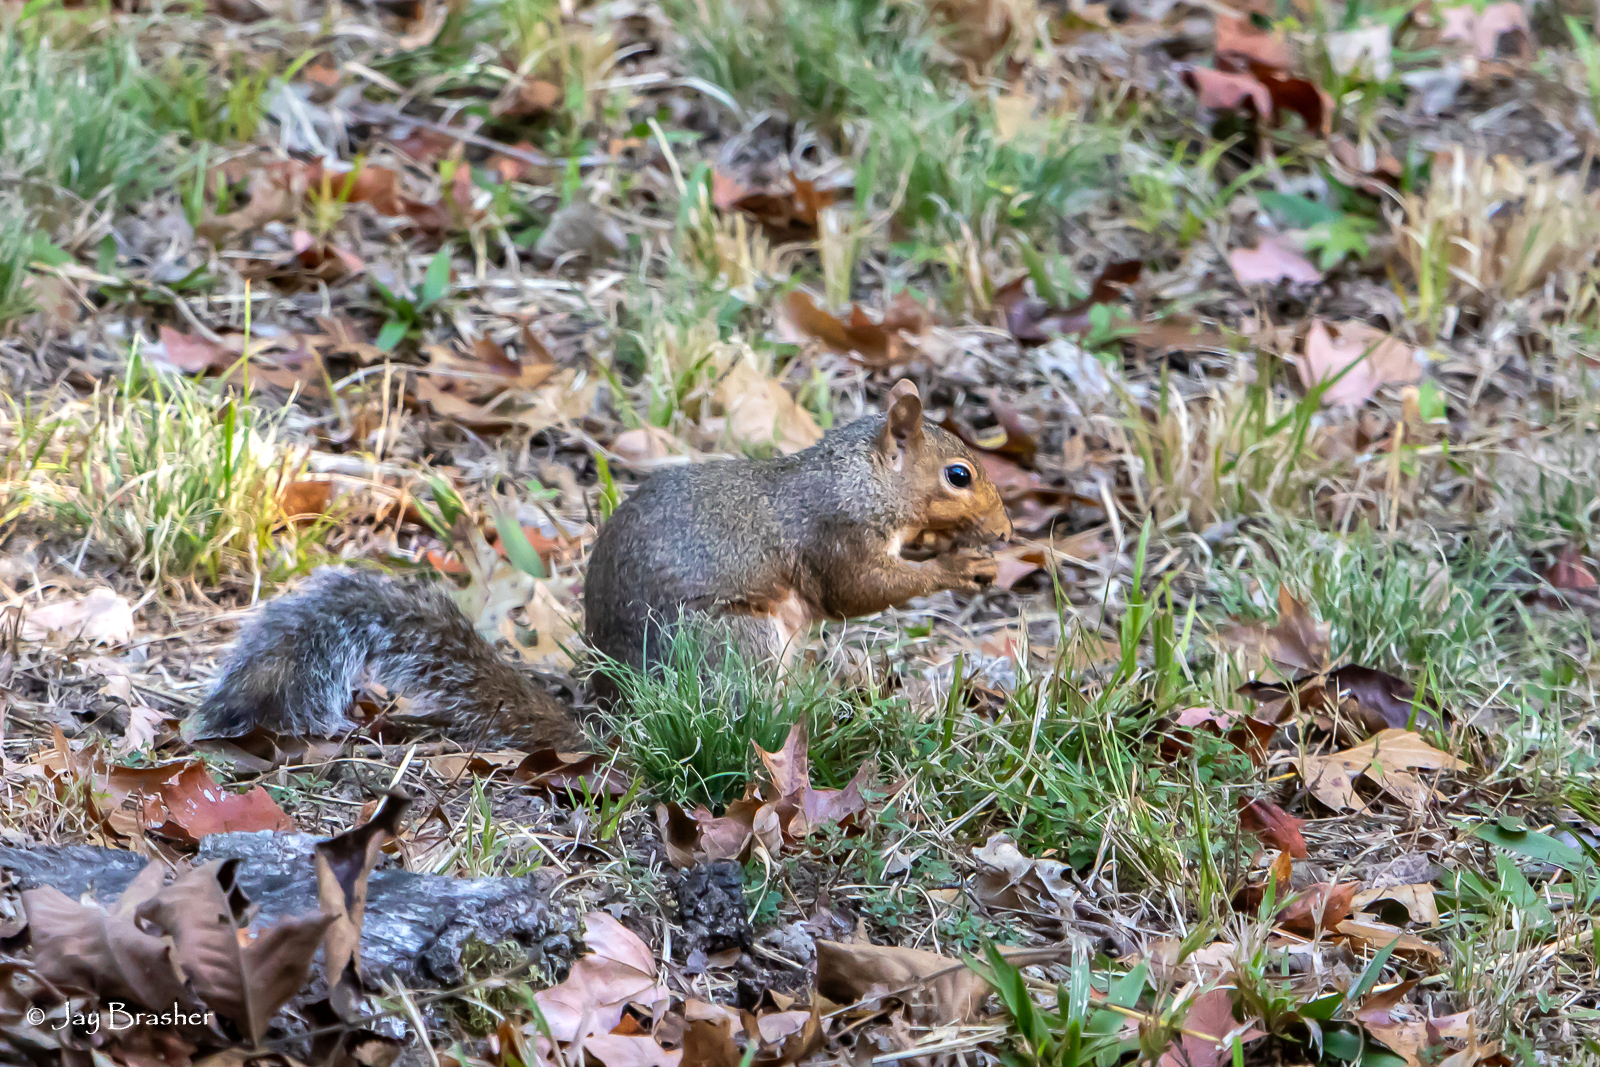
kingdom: Animalia
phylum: Chordata
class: Mammalia
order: Rodentia
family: Sciuridae
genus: Sciurus
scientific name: Sciurus carolinensis
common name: Eastern gray squirrel
